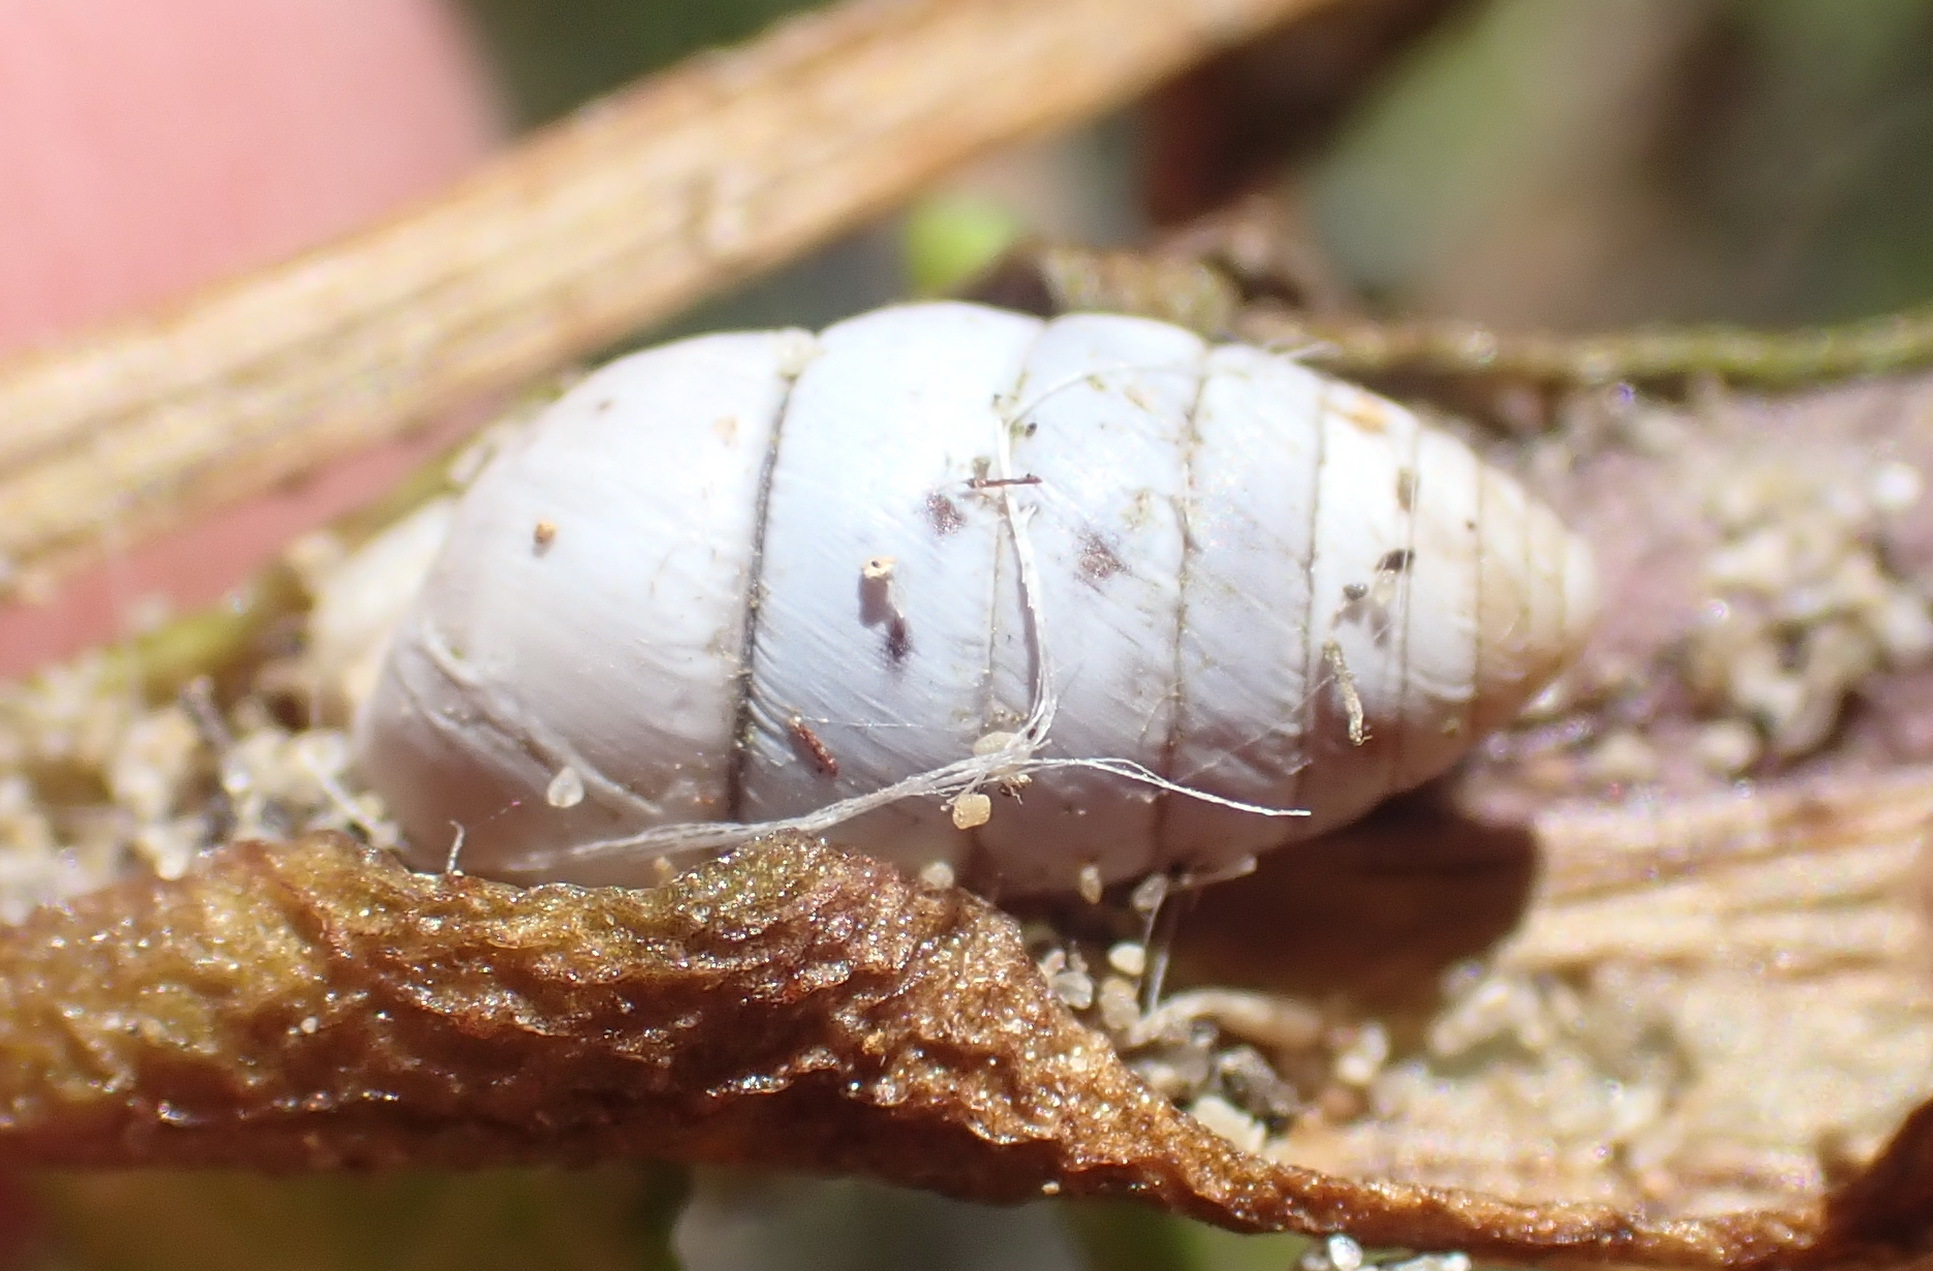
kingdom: Animalia
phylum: Mollusca
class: Gastropoda
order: Stylommatophora
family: Fauxulidae
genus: Fauxulus
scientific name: Fauxulus capensis
